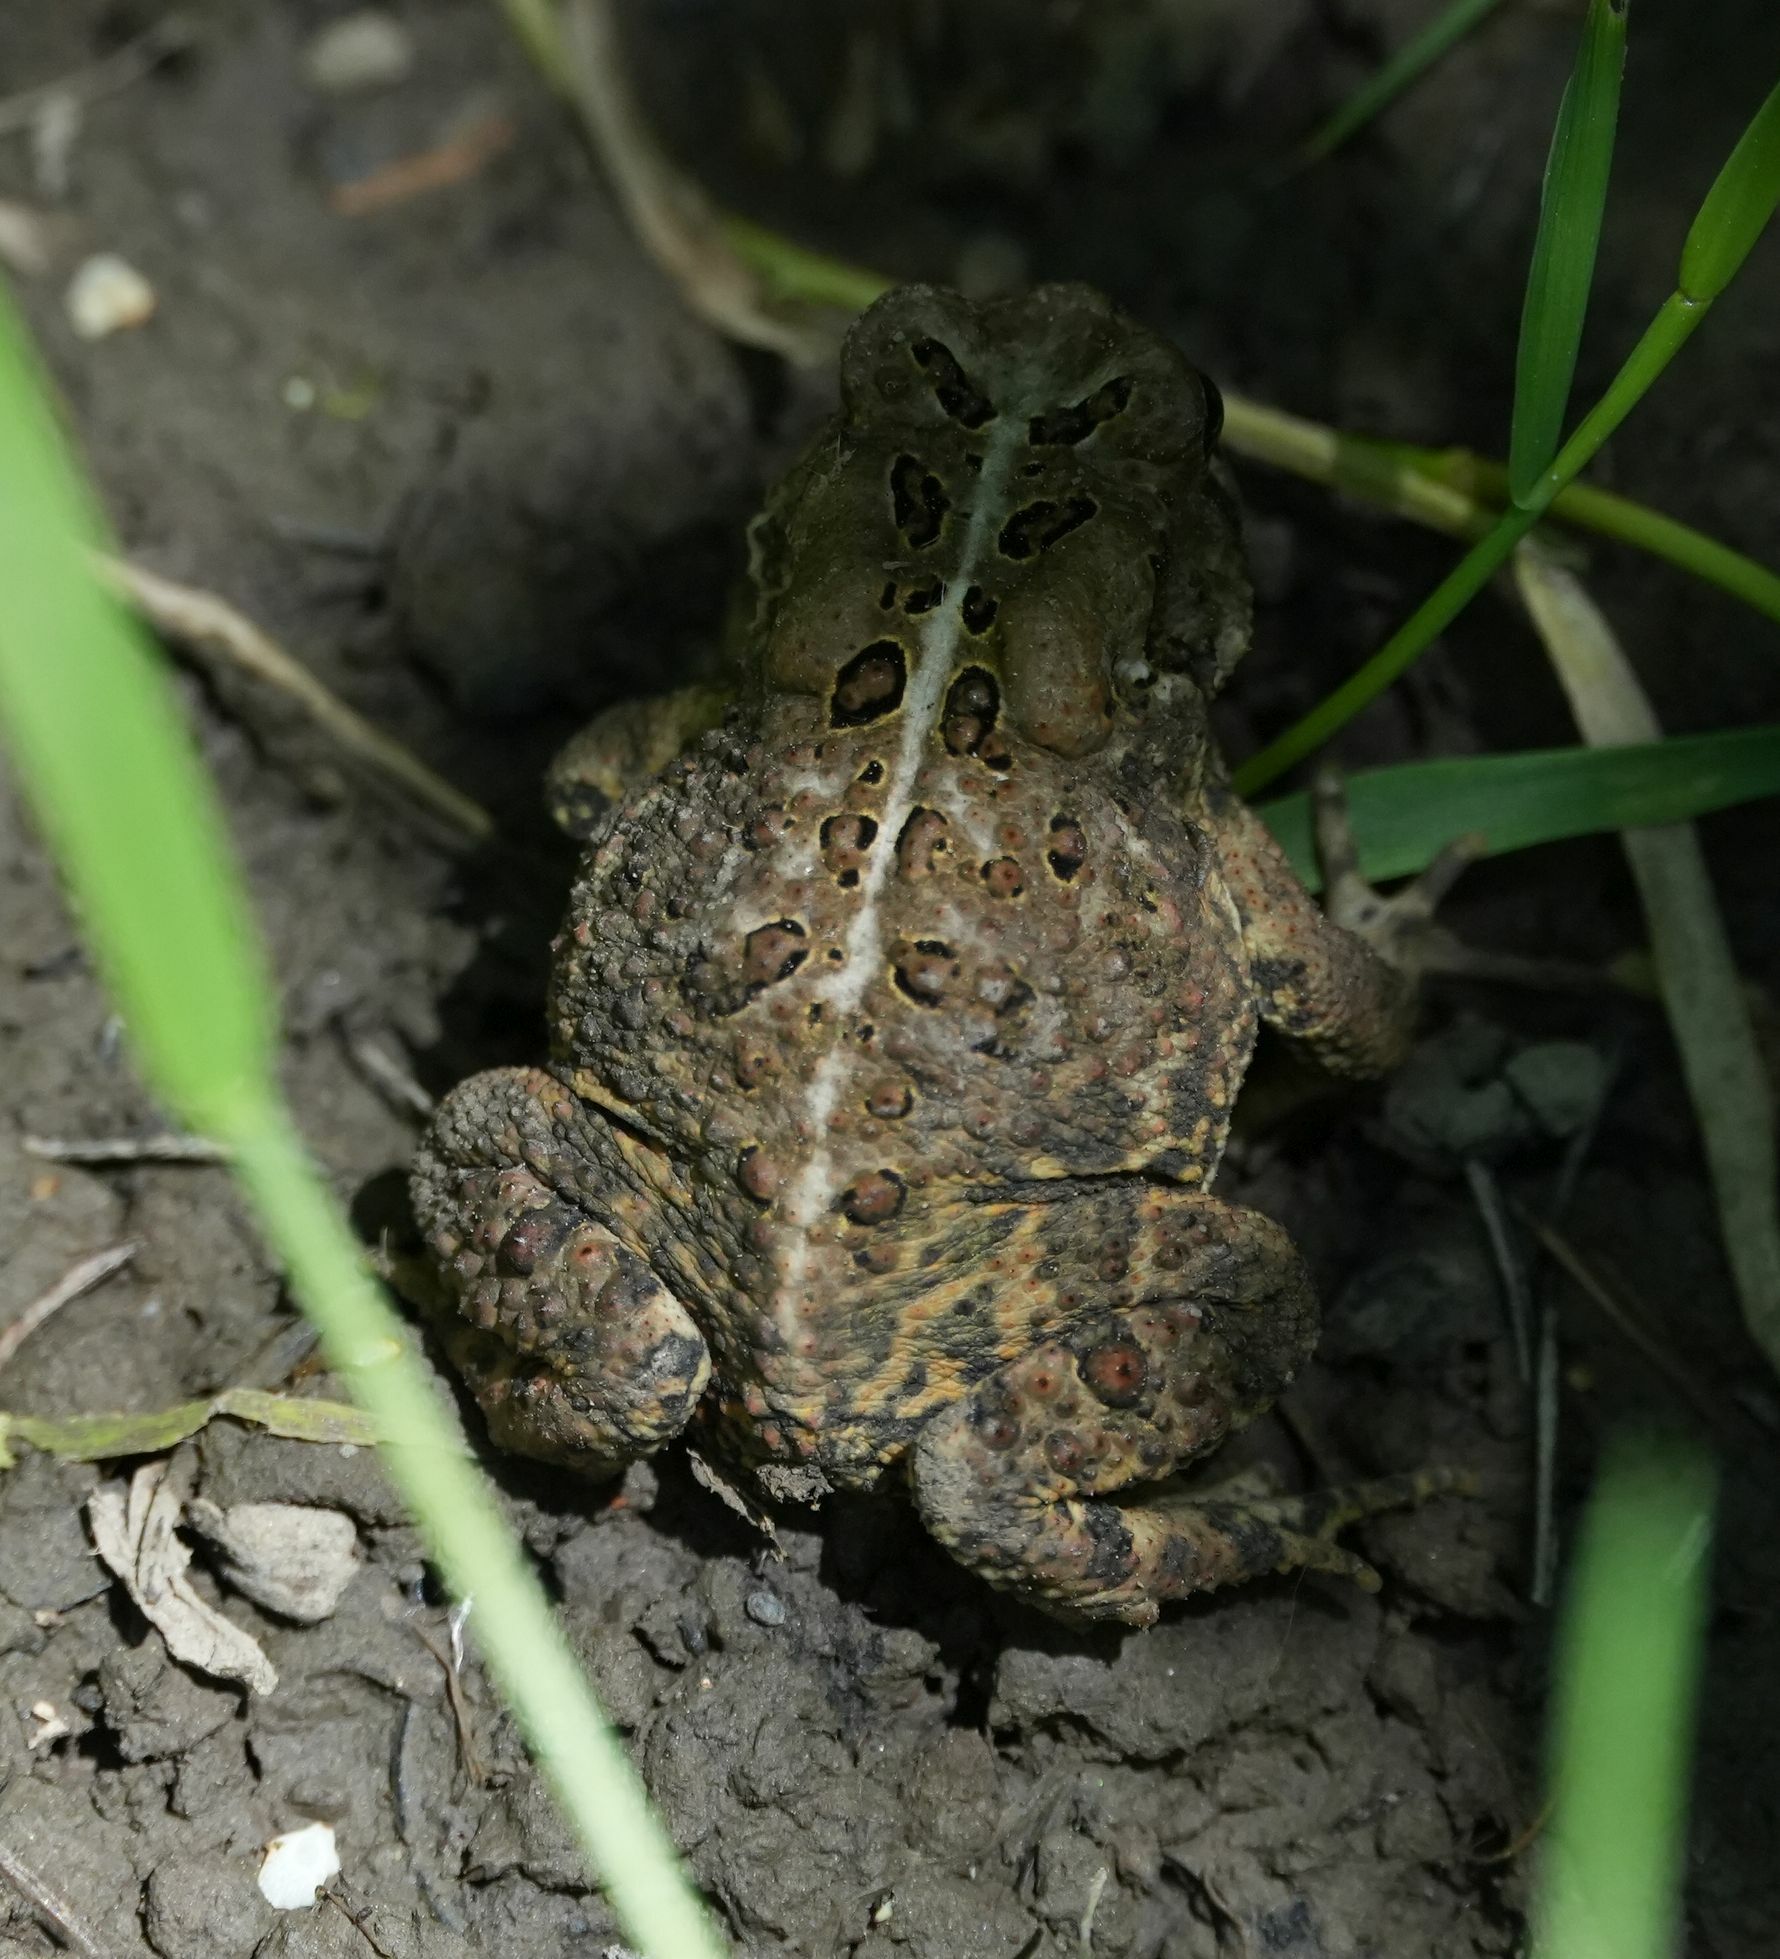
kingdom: Animalia
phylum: Chordata
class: Amphibia
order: Anura
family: Bufonidae
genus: Anaxyrus
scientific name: Anaxyrus americanus
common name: American toad
